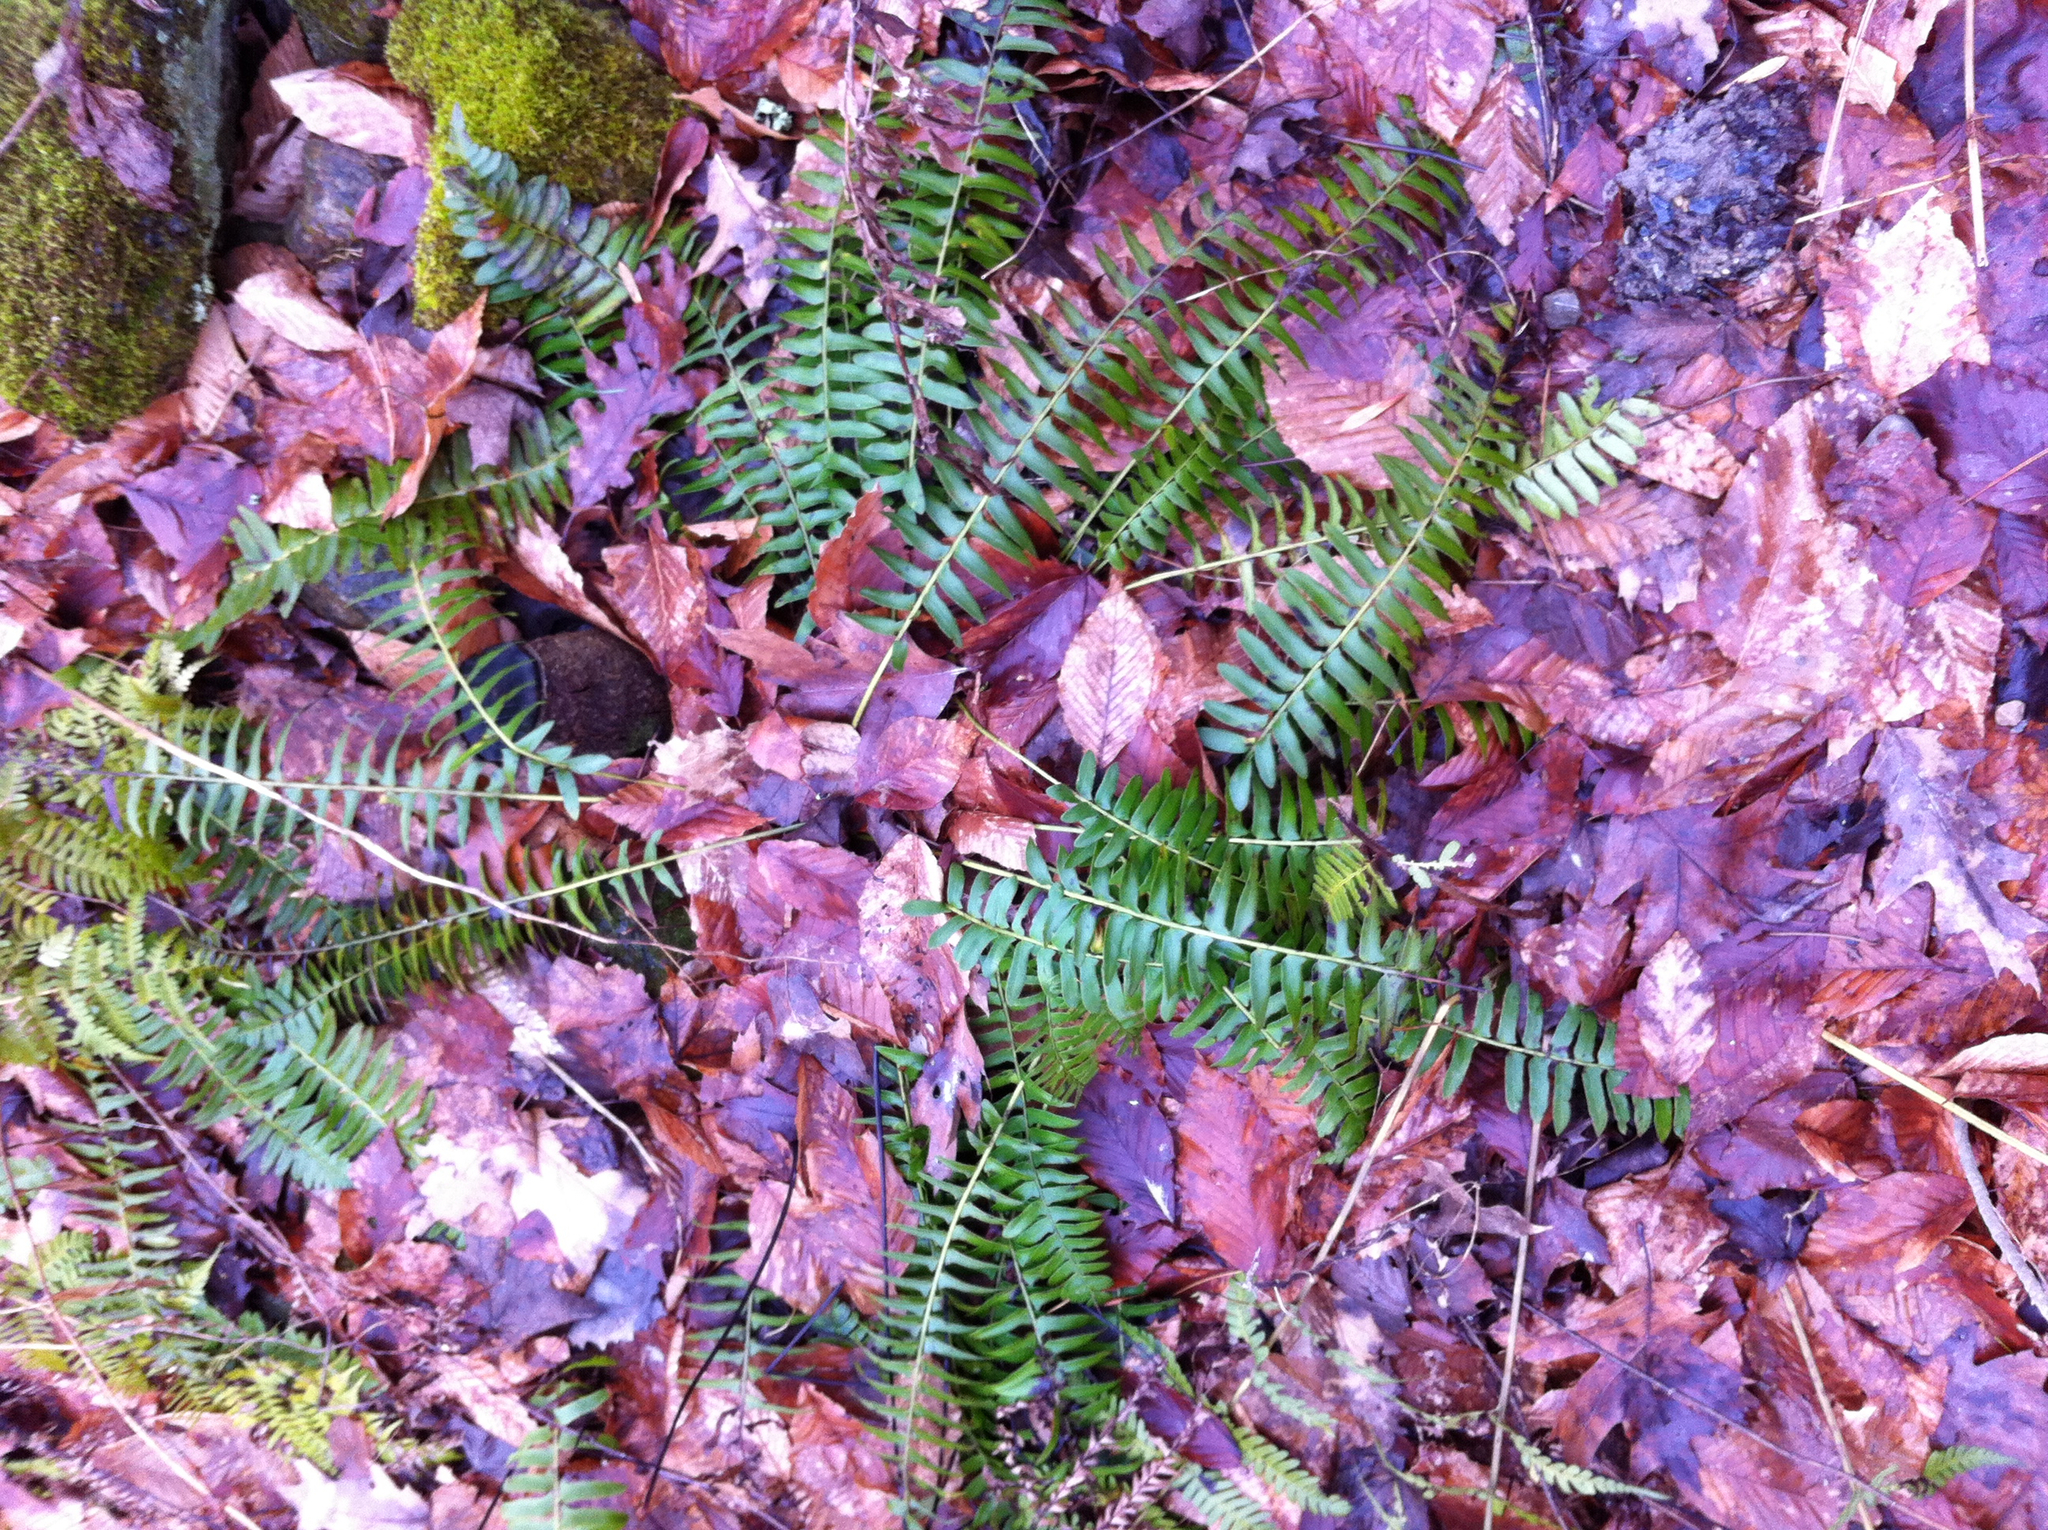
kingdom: Plantae
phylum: Tracheophyta
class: Polypodiopsida
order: Polypodiales
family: Dryopteridaceae
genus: Polystichum
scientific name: Polystichum acrostichoides
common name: Christmas fern
